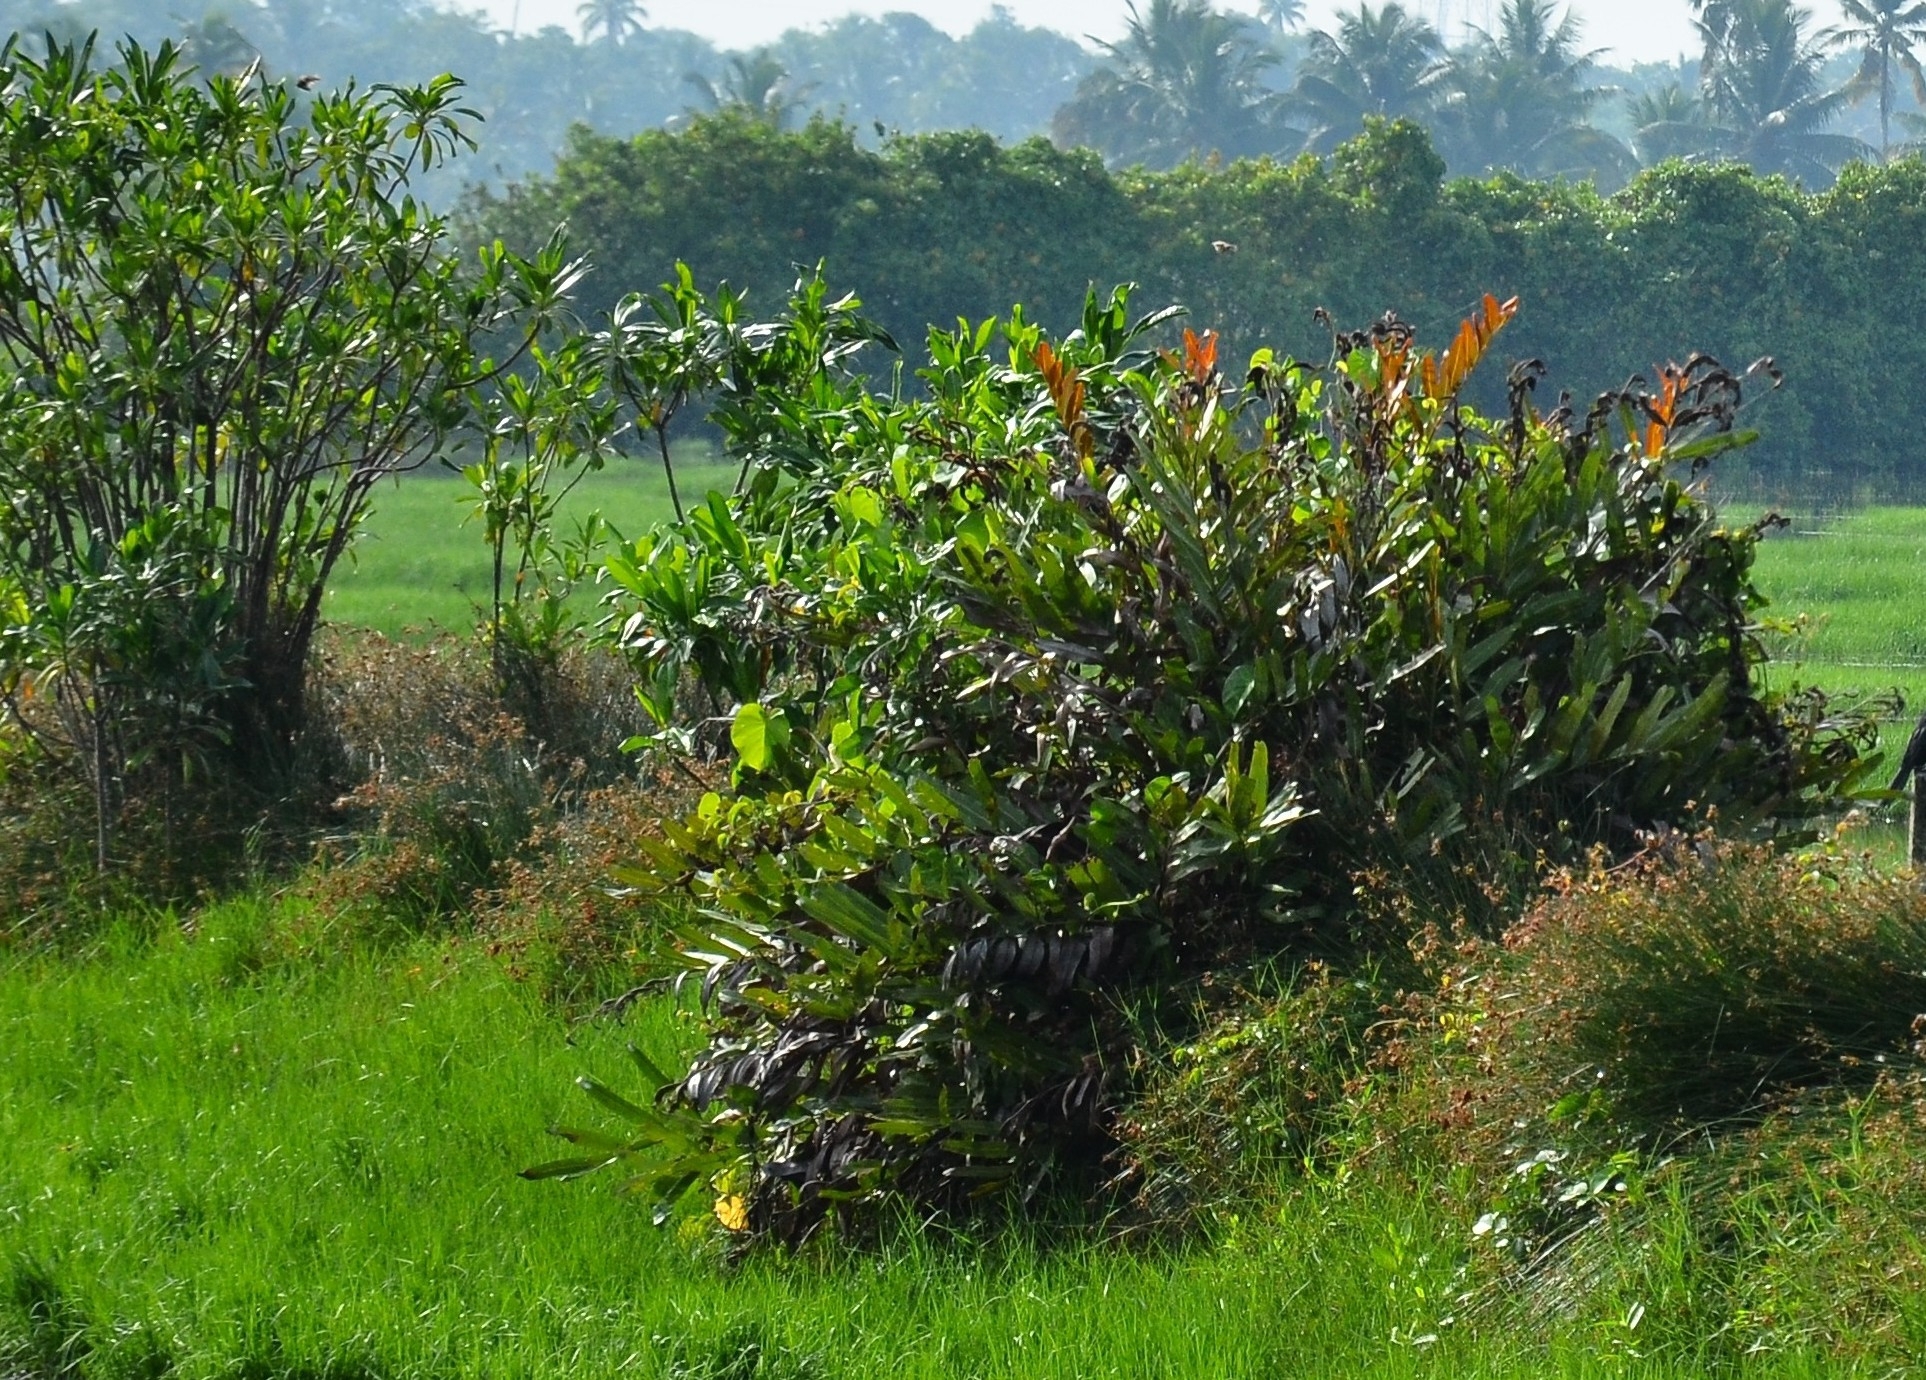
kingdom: Plantae
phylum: Tracheophyta
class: Polypodiopsida
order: Polypodiales
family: Pteridaceae
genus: Acrostichum
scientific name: Acrostichum aureum
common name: Leather fern
